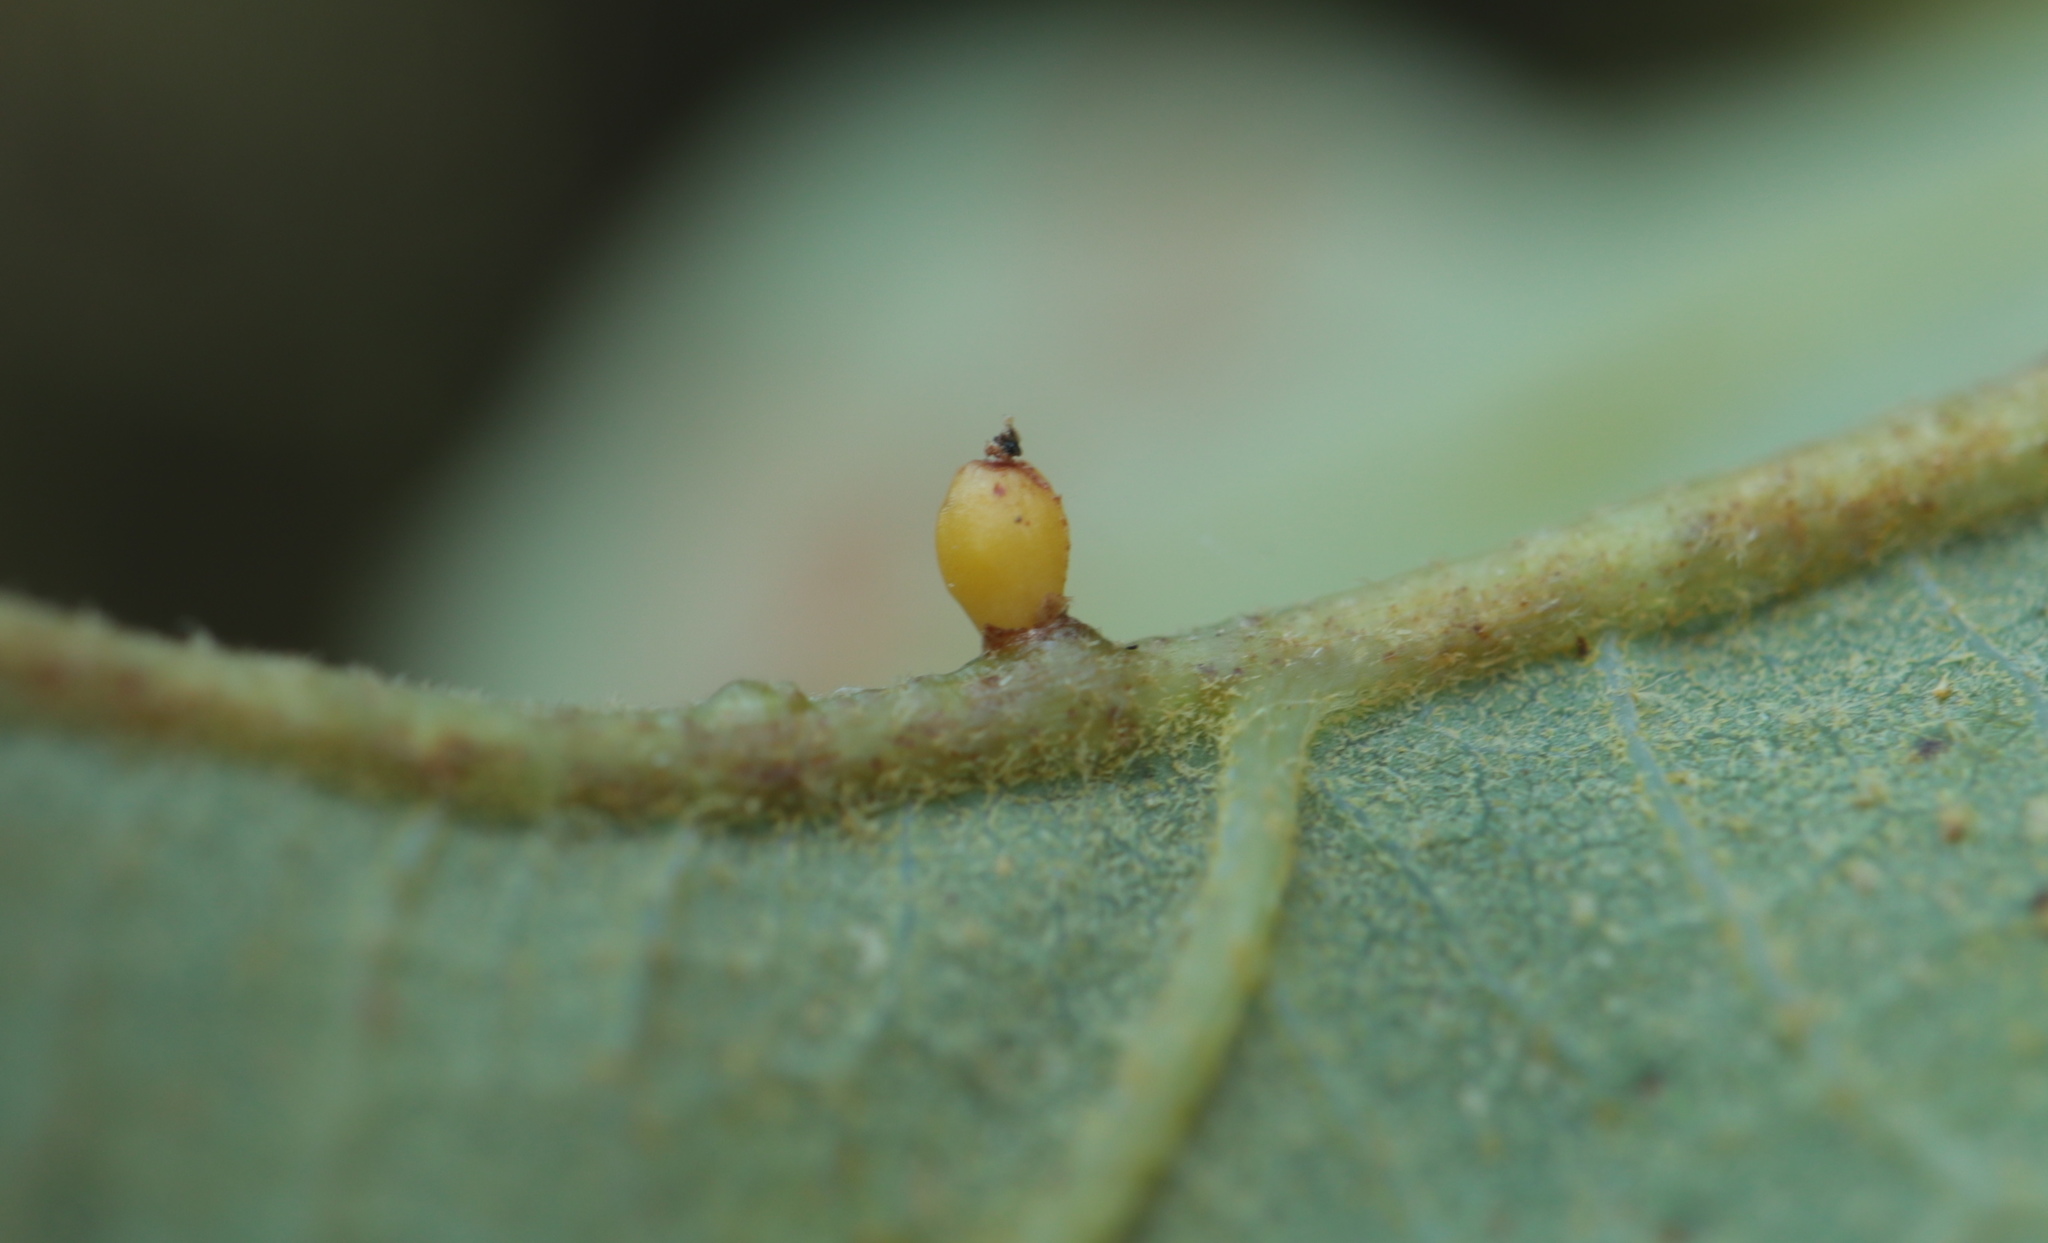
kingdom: Animalia
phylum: Arthropoda
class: Insecta
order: Hymenoptera
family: Cynipidae
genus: Andricus
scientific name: Andricus
